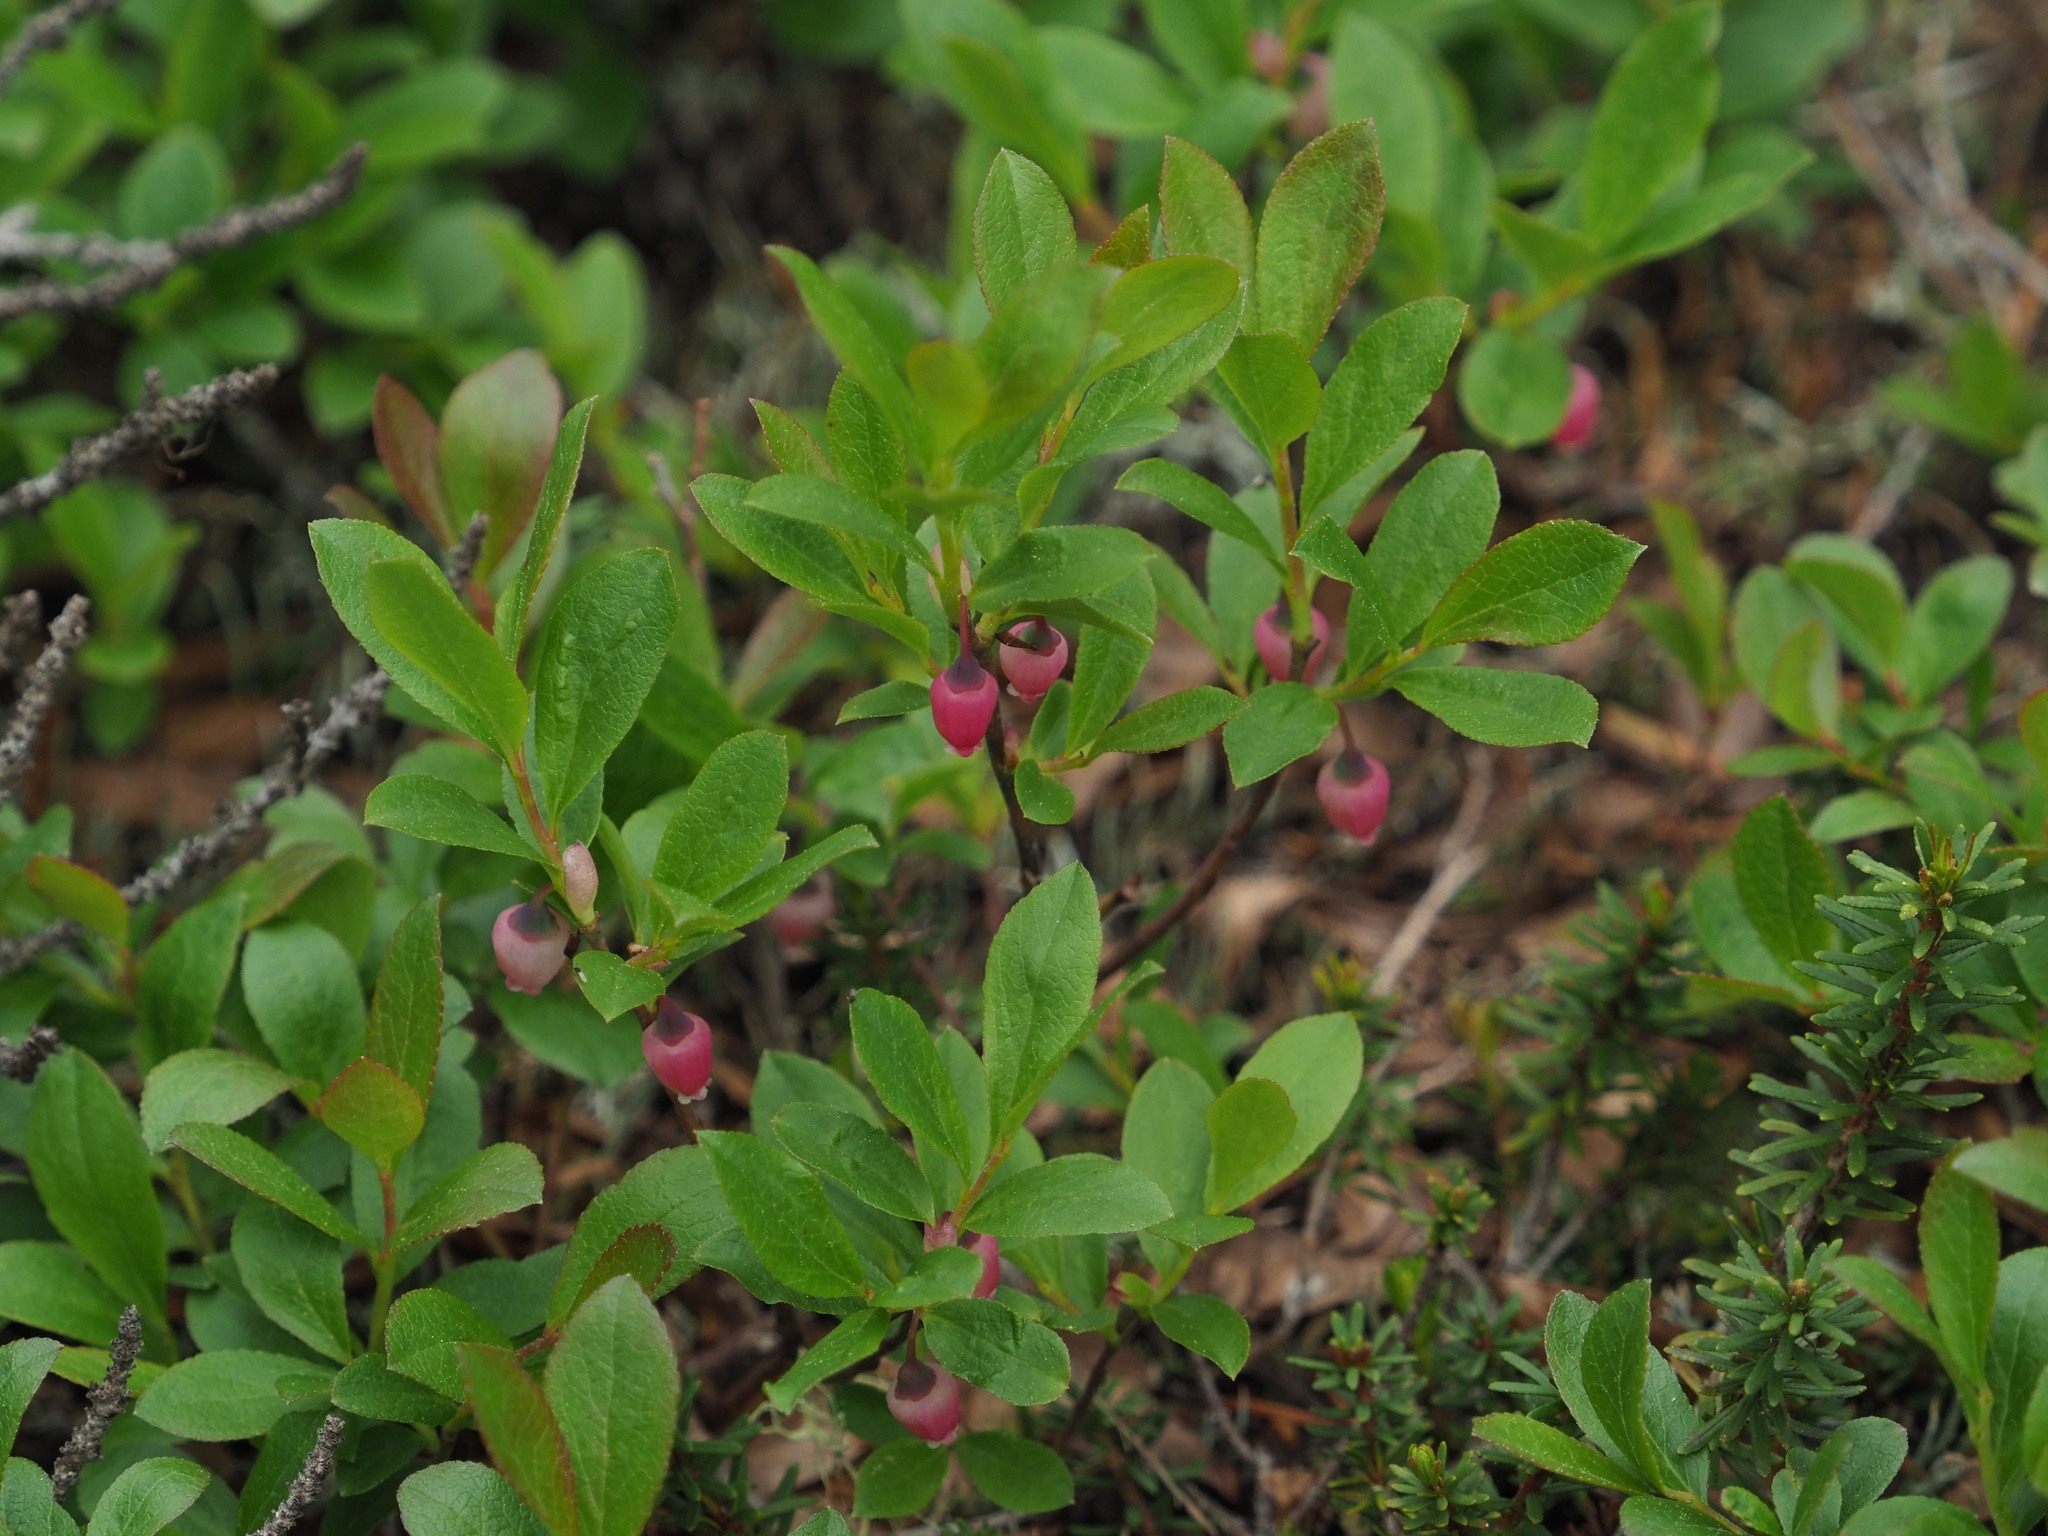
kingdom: Plantae
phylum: Tracheophyta
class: Magnoliopsida
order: Ericales
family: Ericaceae
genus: Vaccinium
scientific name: Vaccinium cespitosum
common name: Dwarf bilberry
